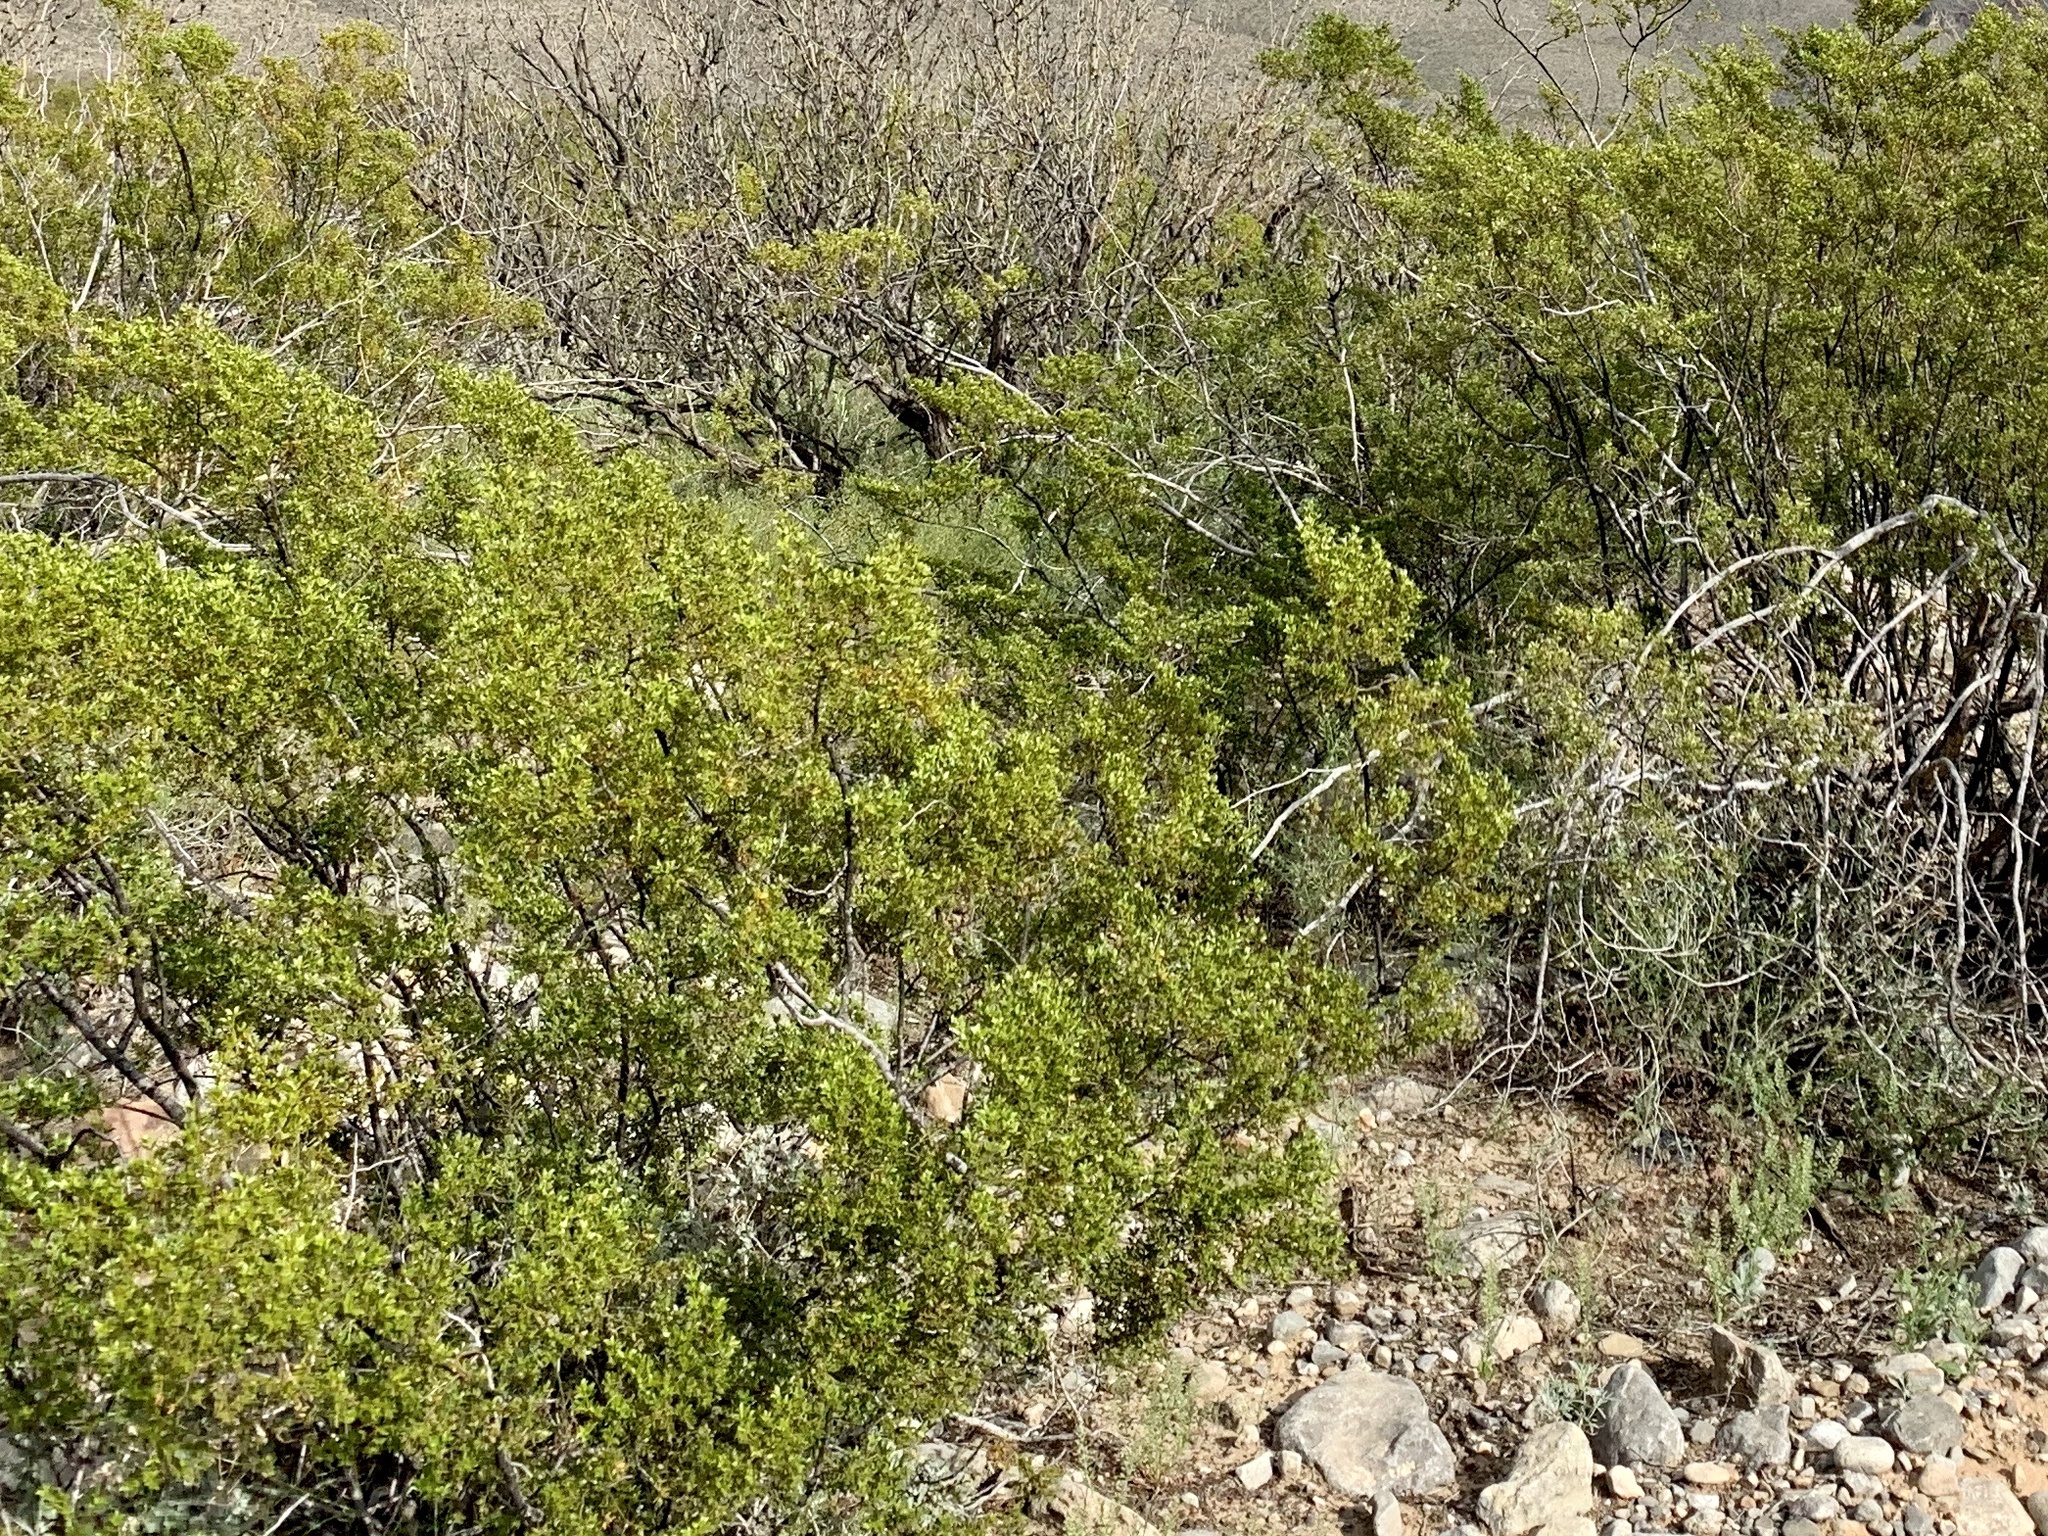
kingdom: Plantae
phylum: Tracheophyta
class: Magnoliopsida
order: Zygophyllales
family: Zygophyllaceae
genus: Larrea
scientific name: Larrea tridentata
